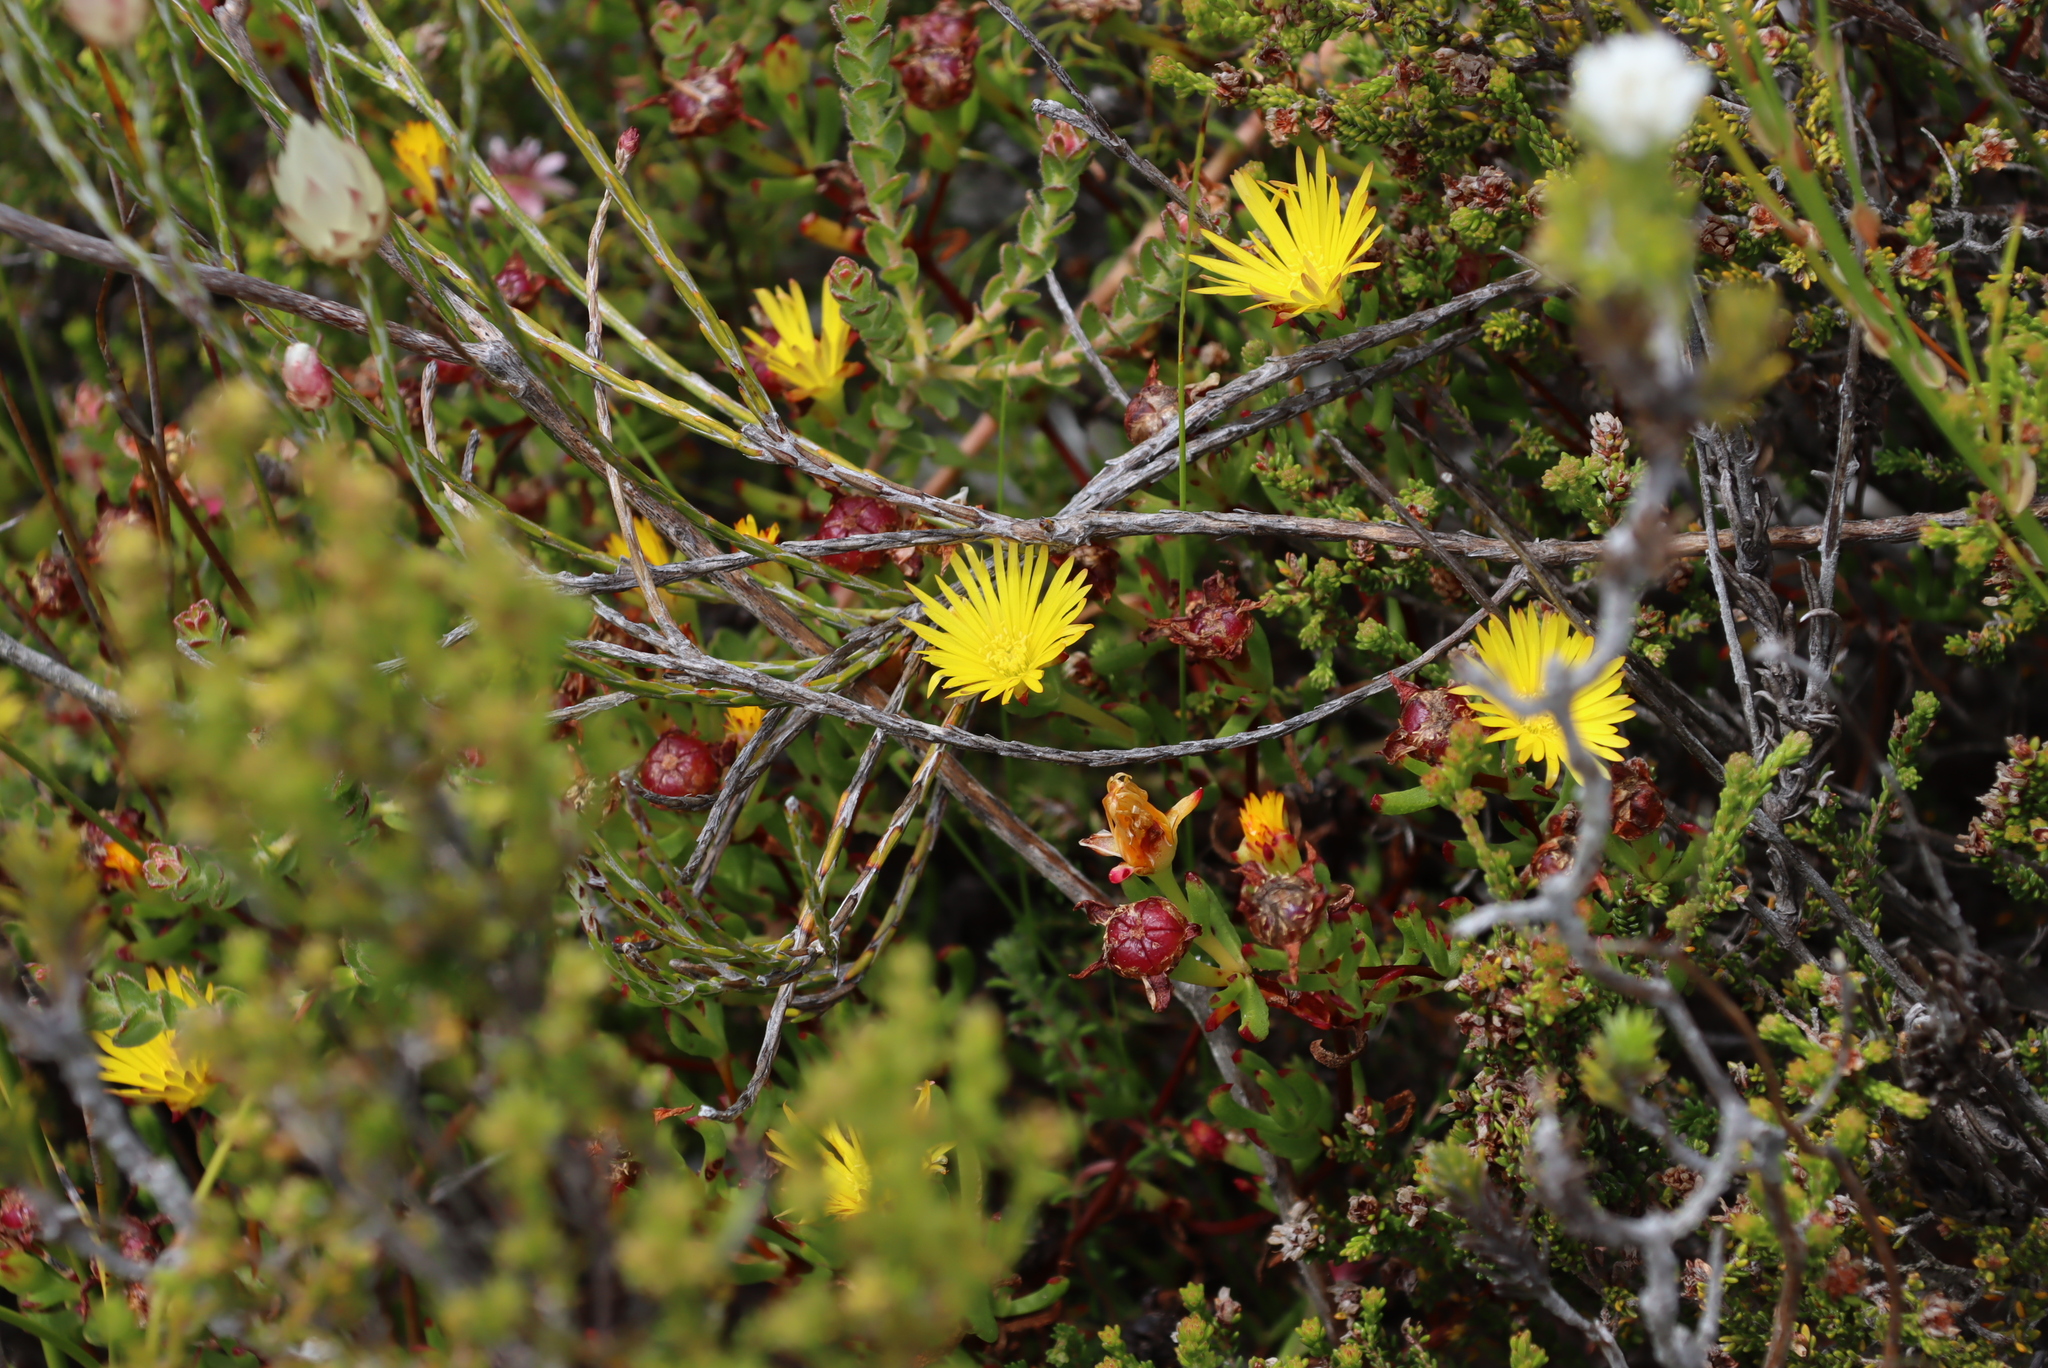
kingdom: Plantae
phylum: Tracheophyta
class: Magnoliopsida
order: Caryophyllales
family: Aizoaceae
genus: Lampranthus
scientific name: Lampranthus promontorii
